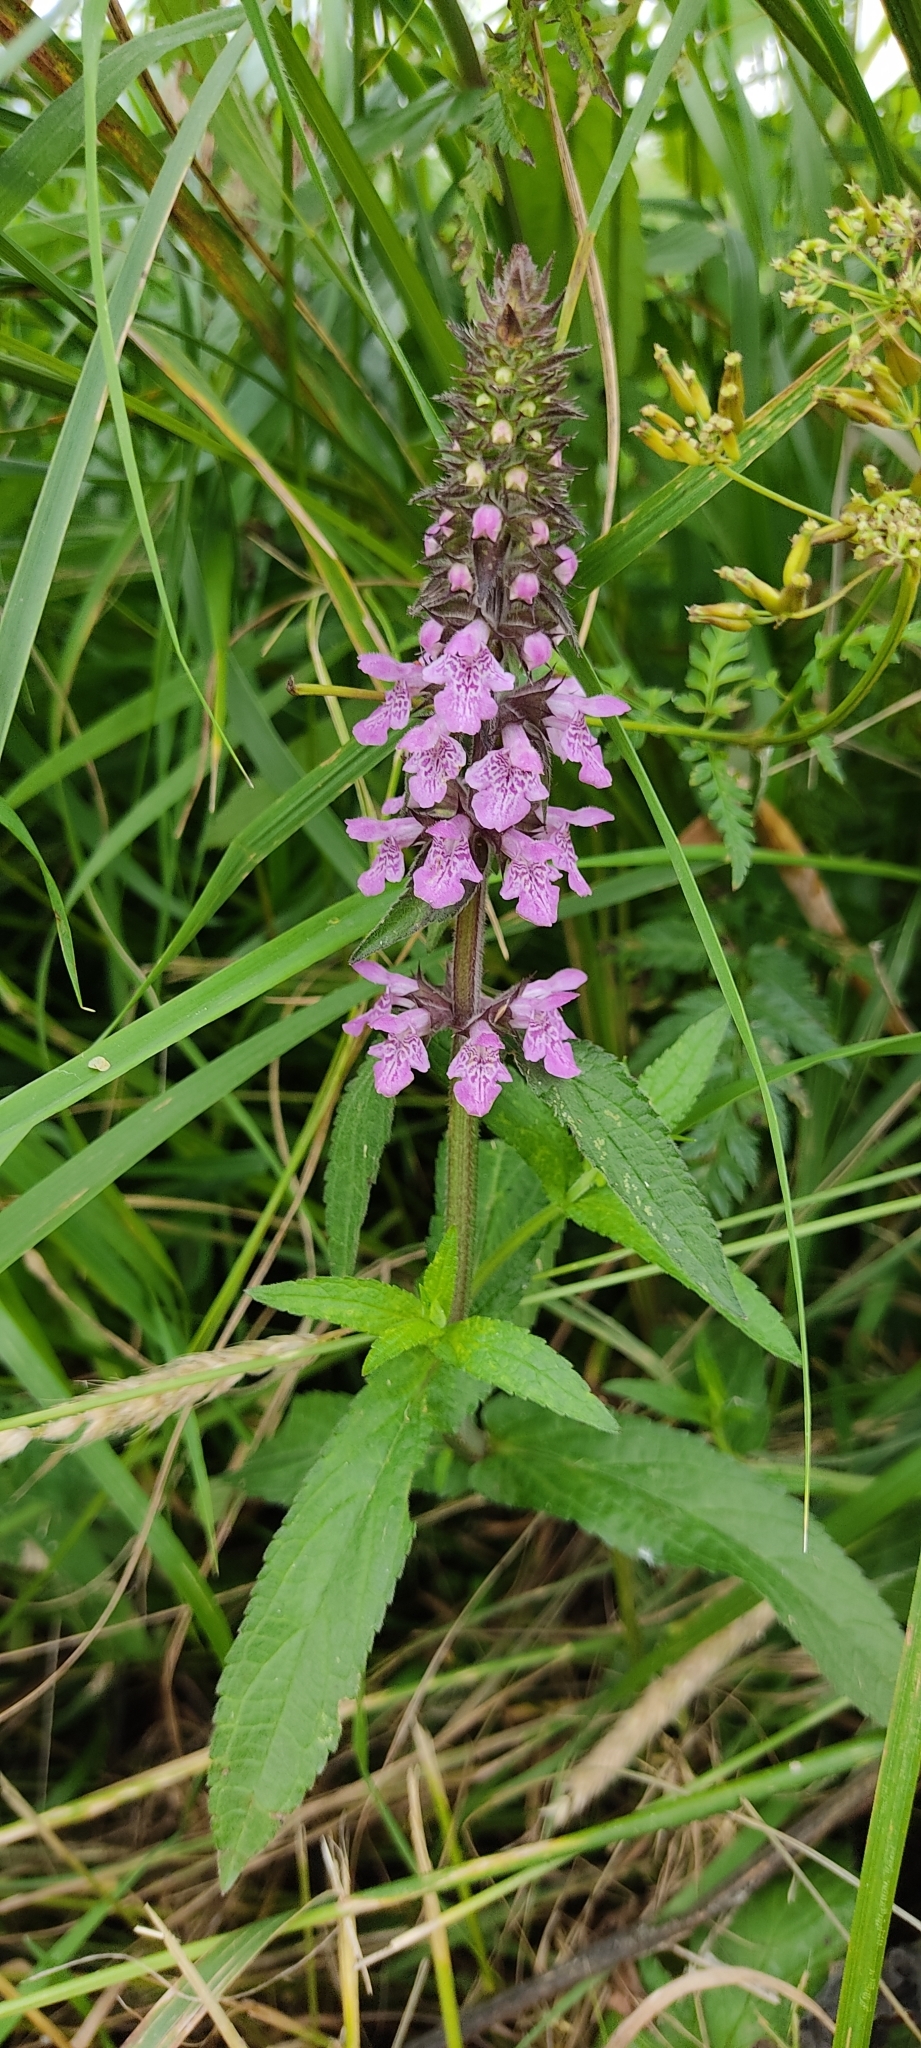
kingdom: Plantae
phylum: Tracheophyta
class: Magnoliopsida
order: Lamiales
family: Lamiaceae
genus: Stachys
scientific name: Stachys palustris
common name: Marsh woundwort
